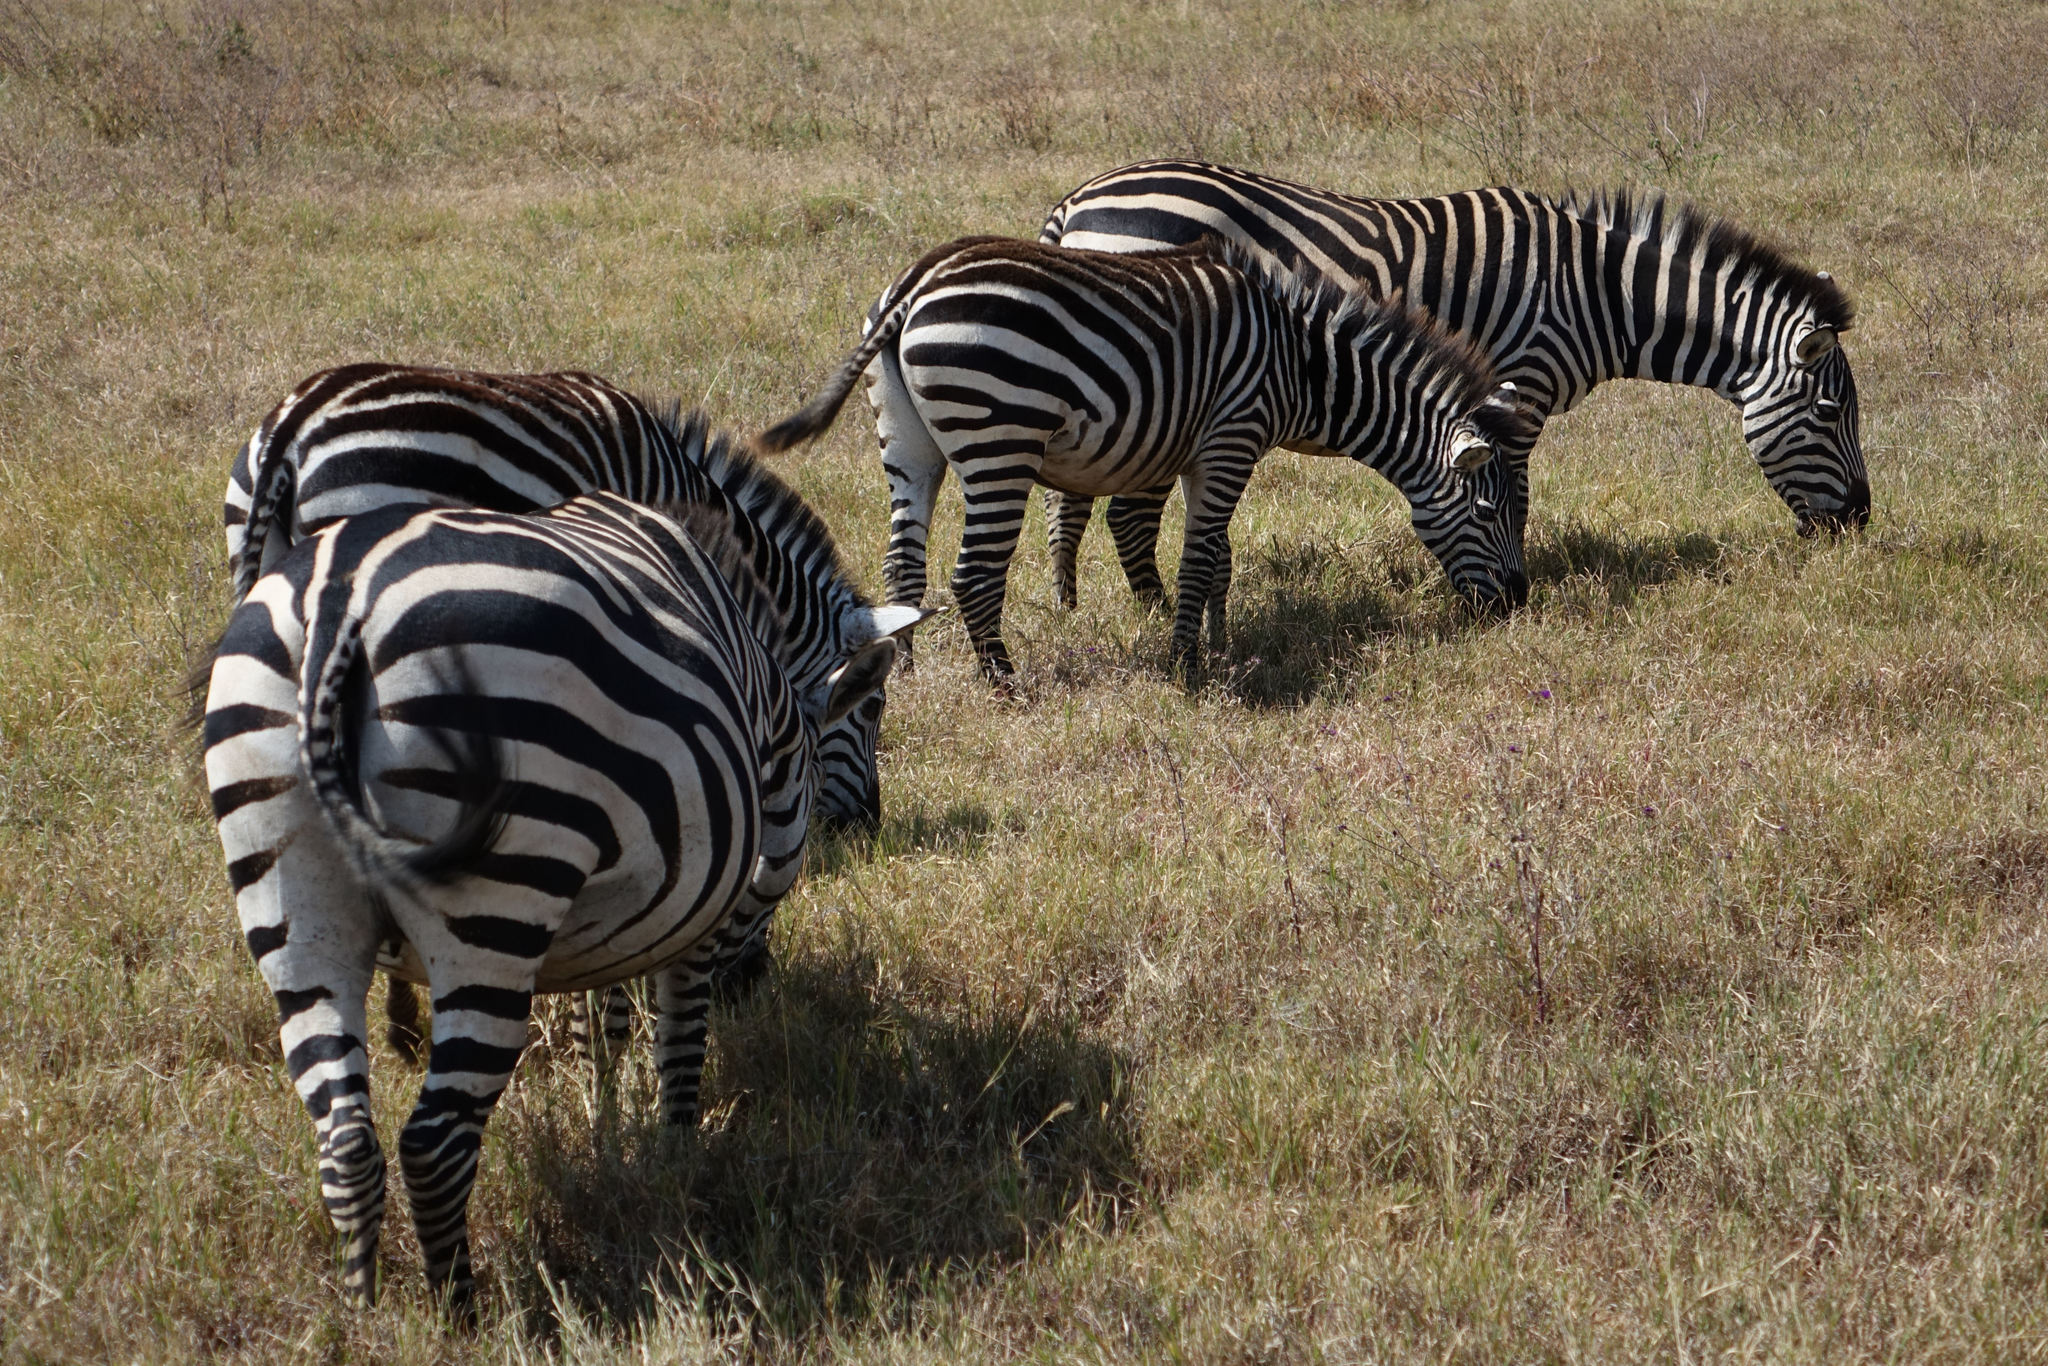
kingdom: Animalia
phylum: Chordata
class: Mammalia
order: Perissodactyla
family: Equidae
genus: Equus
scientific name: Equus quagga
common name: Plains zebra
